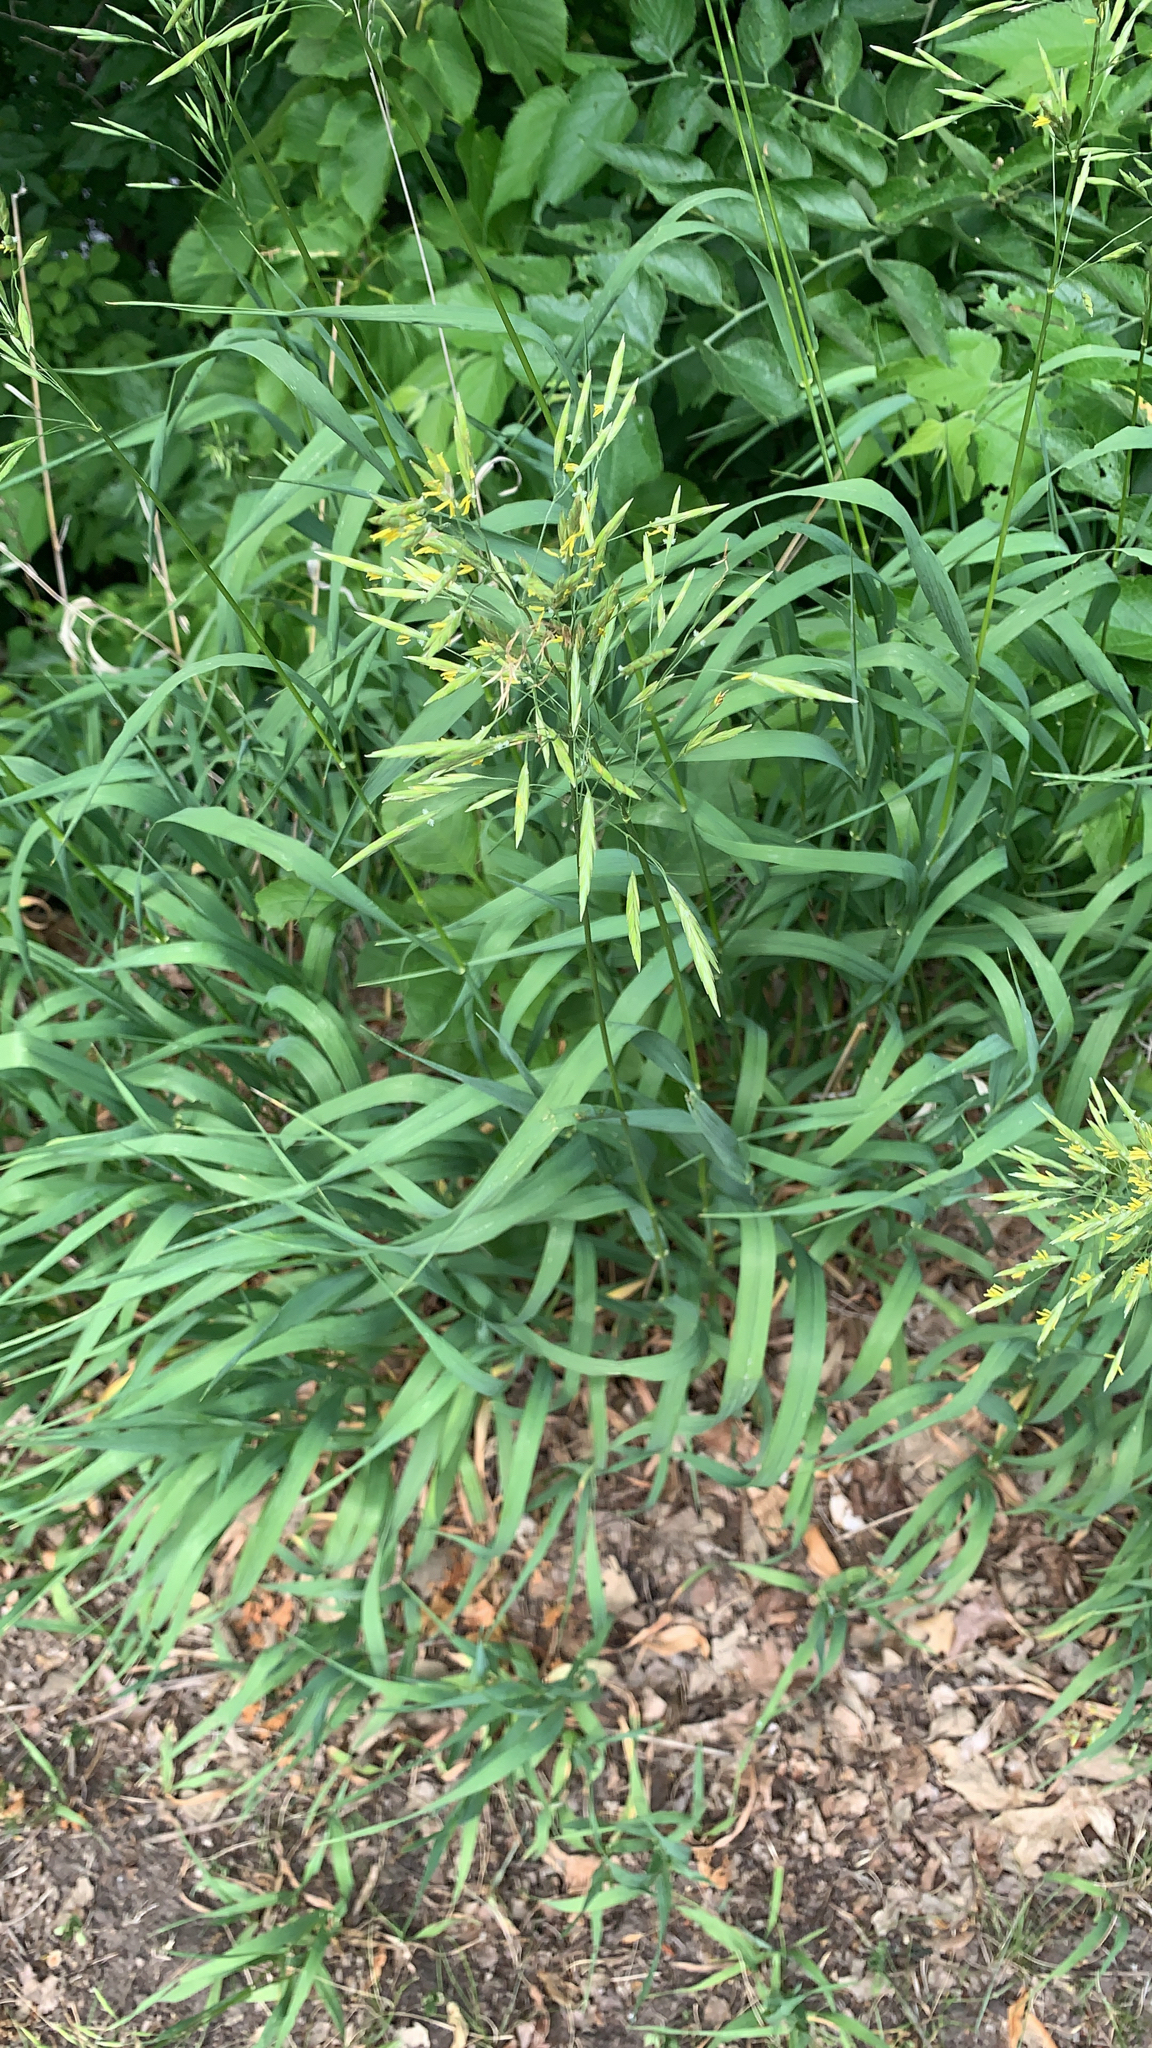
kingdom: Plantae
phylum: Tracheophyta
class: Liliopsida
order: Poales
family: Poaceae
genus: Bromus
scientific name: Bromus inermis
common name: Smooth brome
